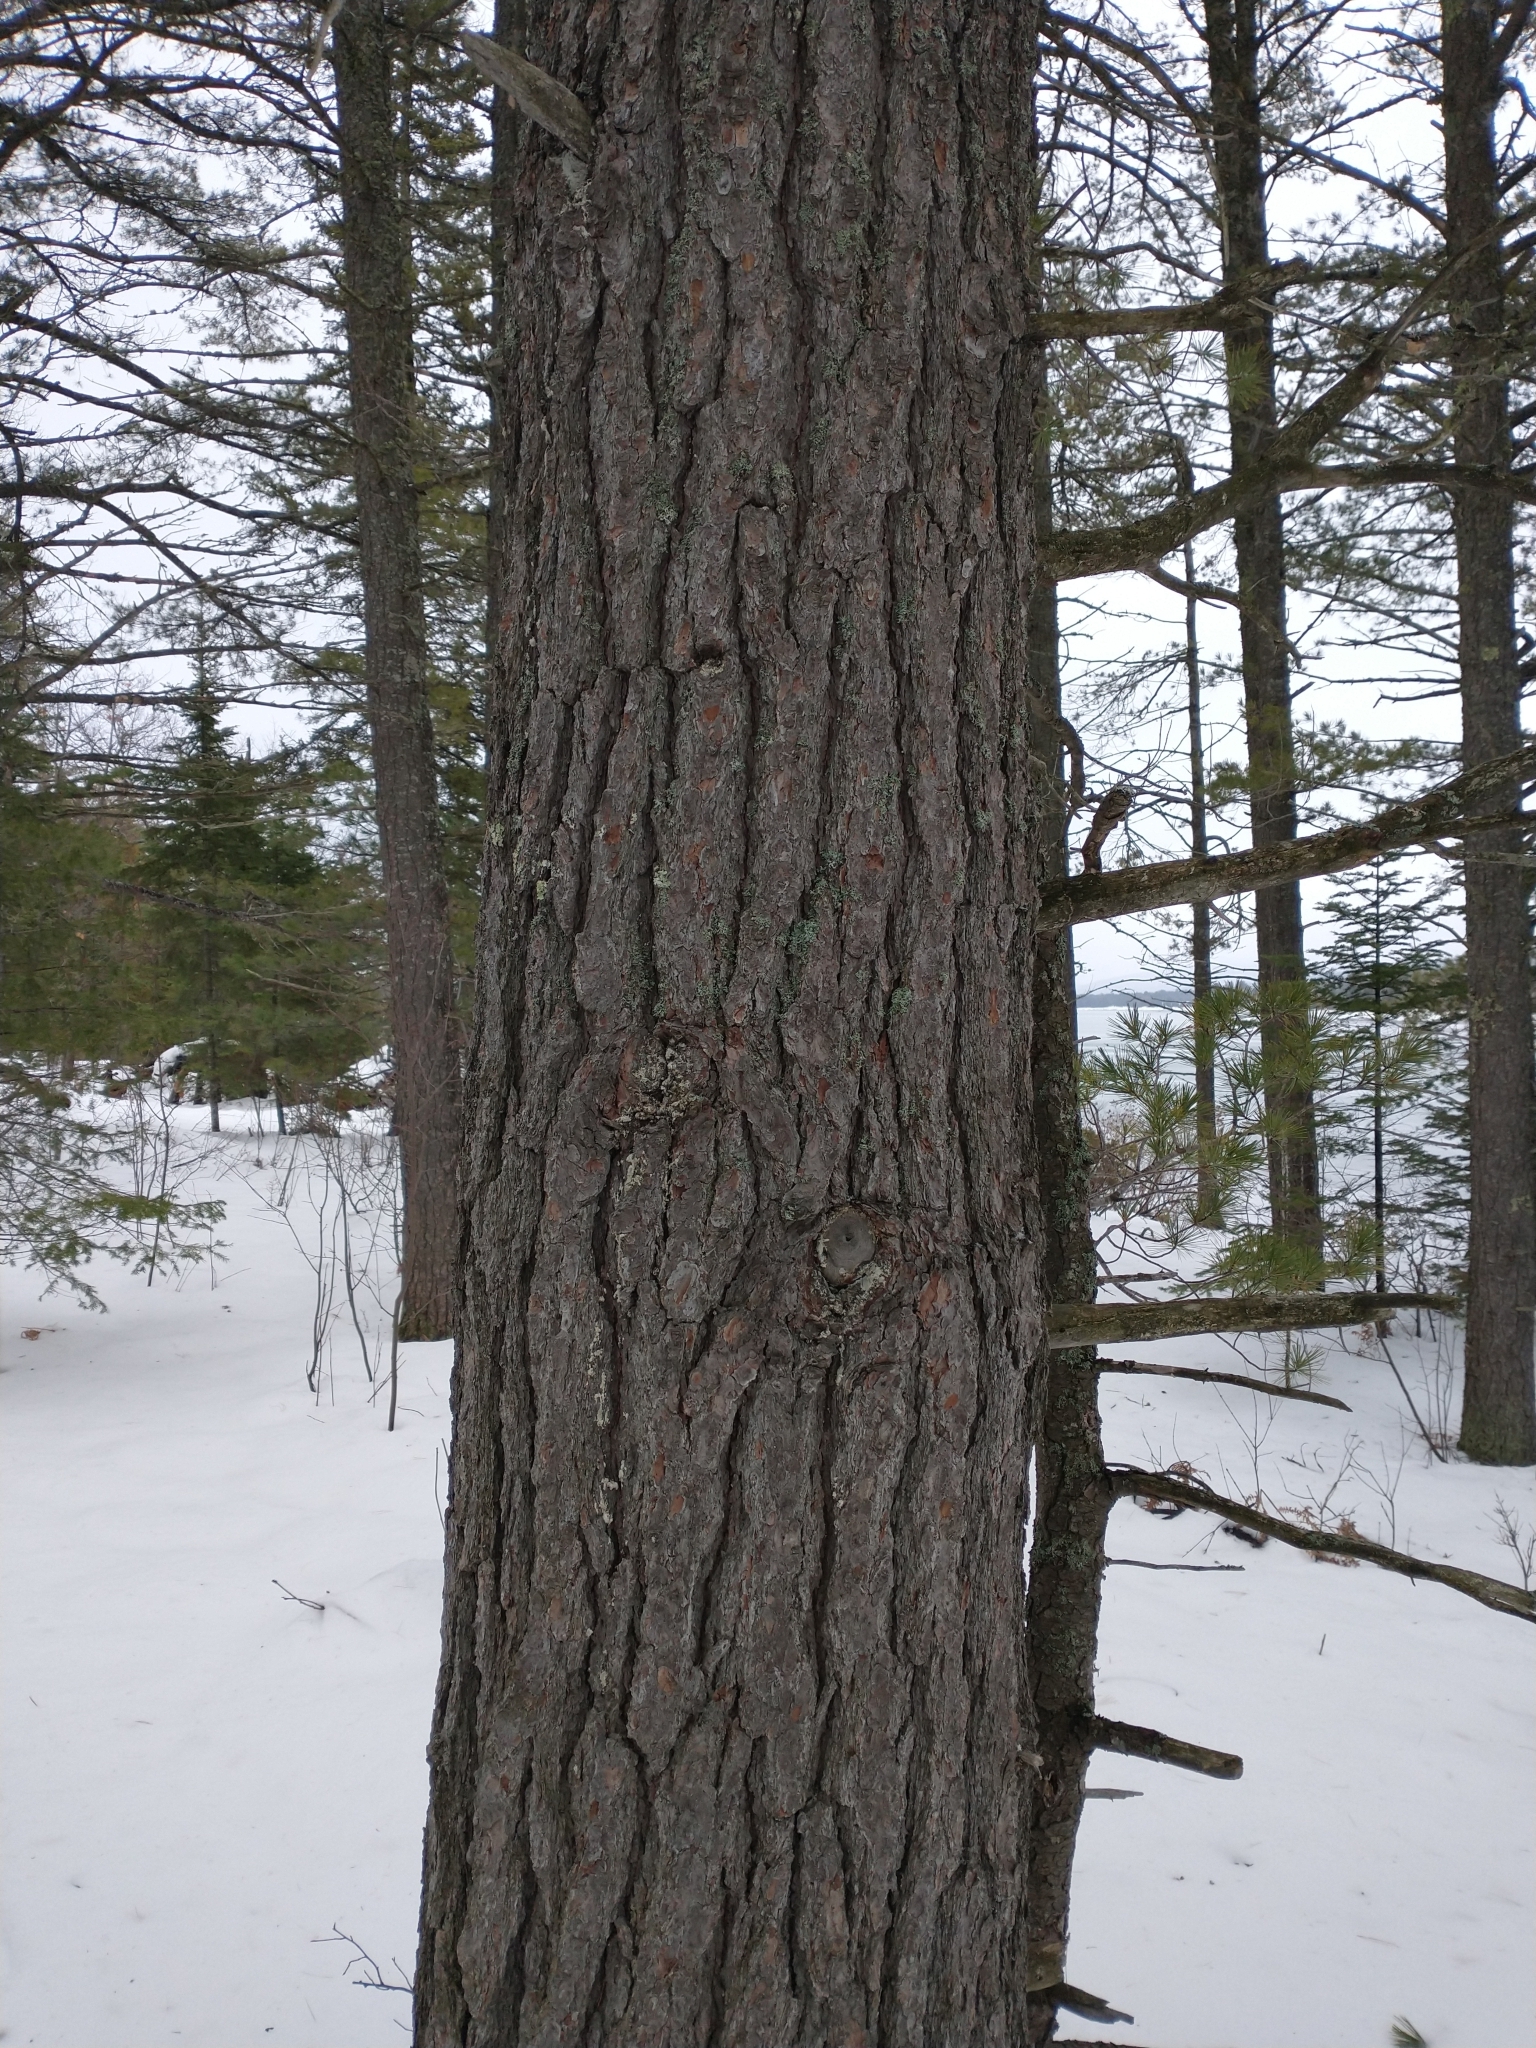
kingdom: Plantae
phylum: Tracheophyta
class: Pinopsida
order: Pinales
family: Pinaceae
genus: Pinus
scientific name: Pinus strobus
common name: Weymouth pine
